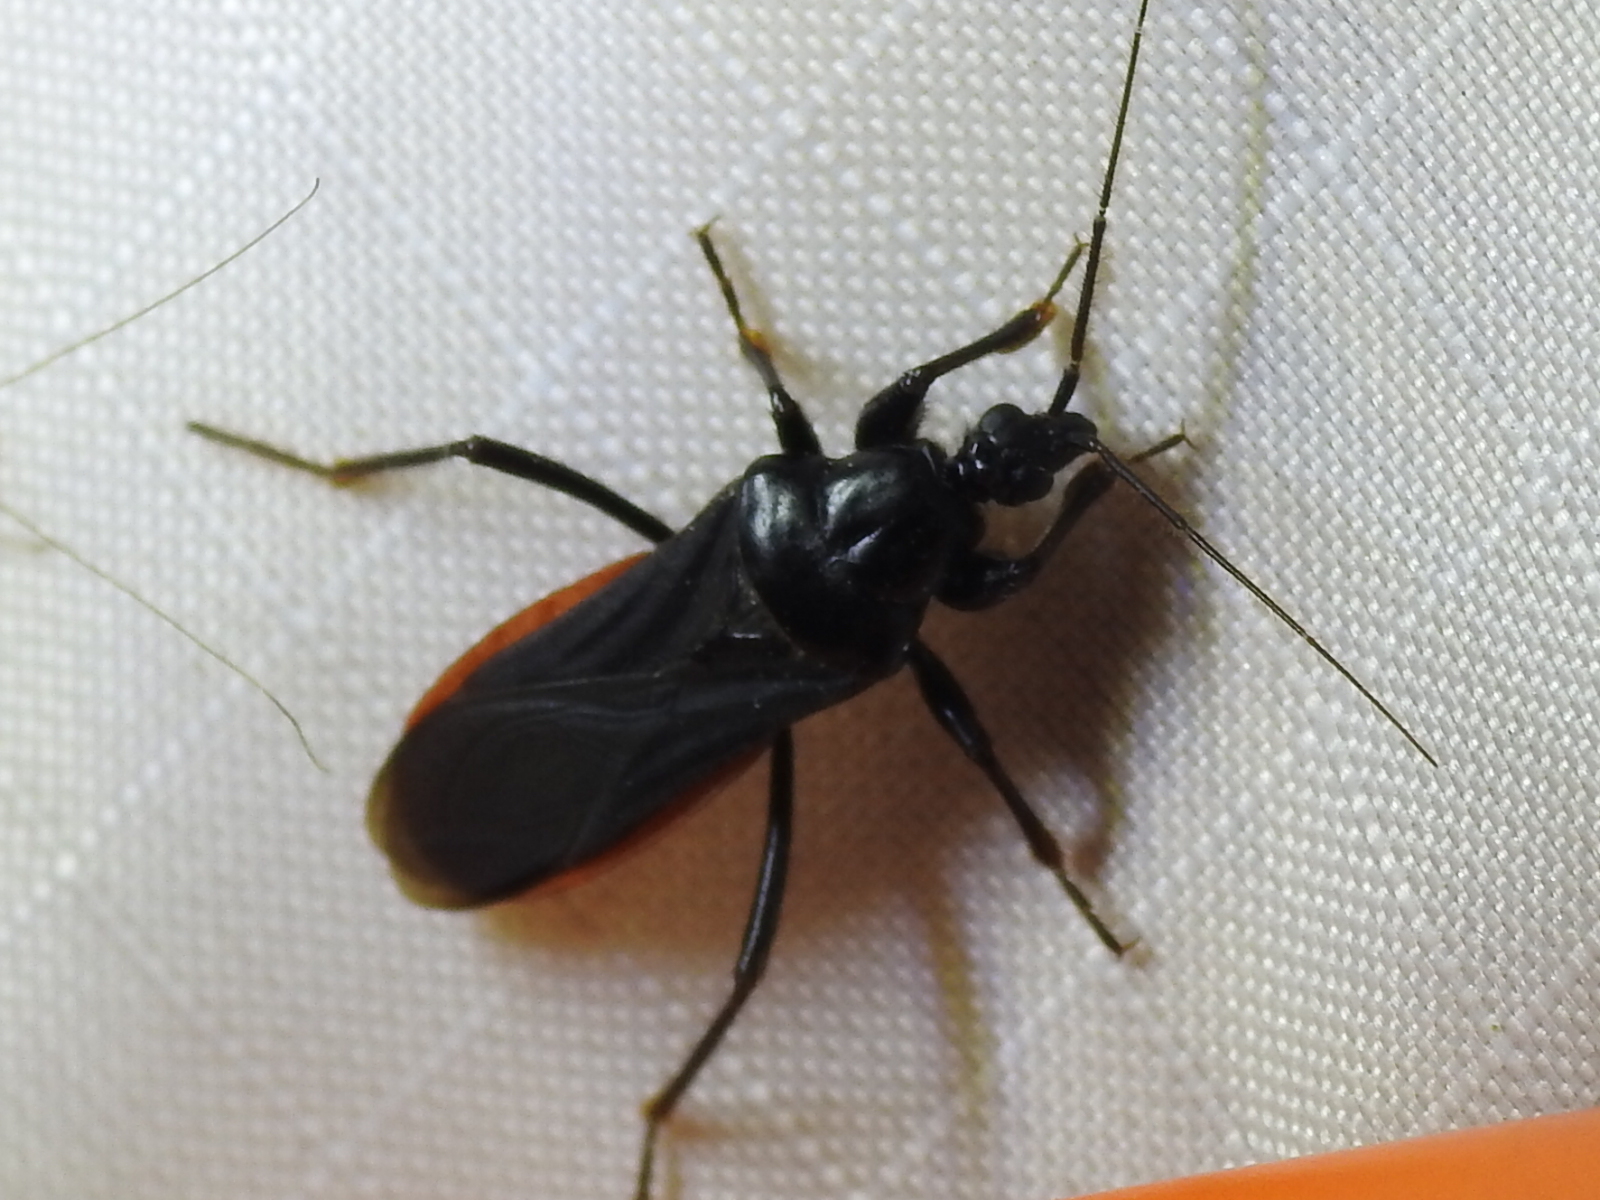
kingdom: Animalia
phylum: Arthropoda
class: Insecta
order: Hemiptera
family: Reduviidae
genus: Melanolestes
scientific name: Melanolestes picipes
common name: Assassin bug
